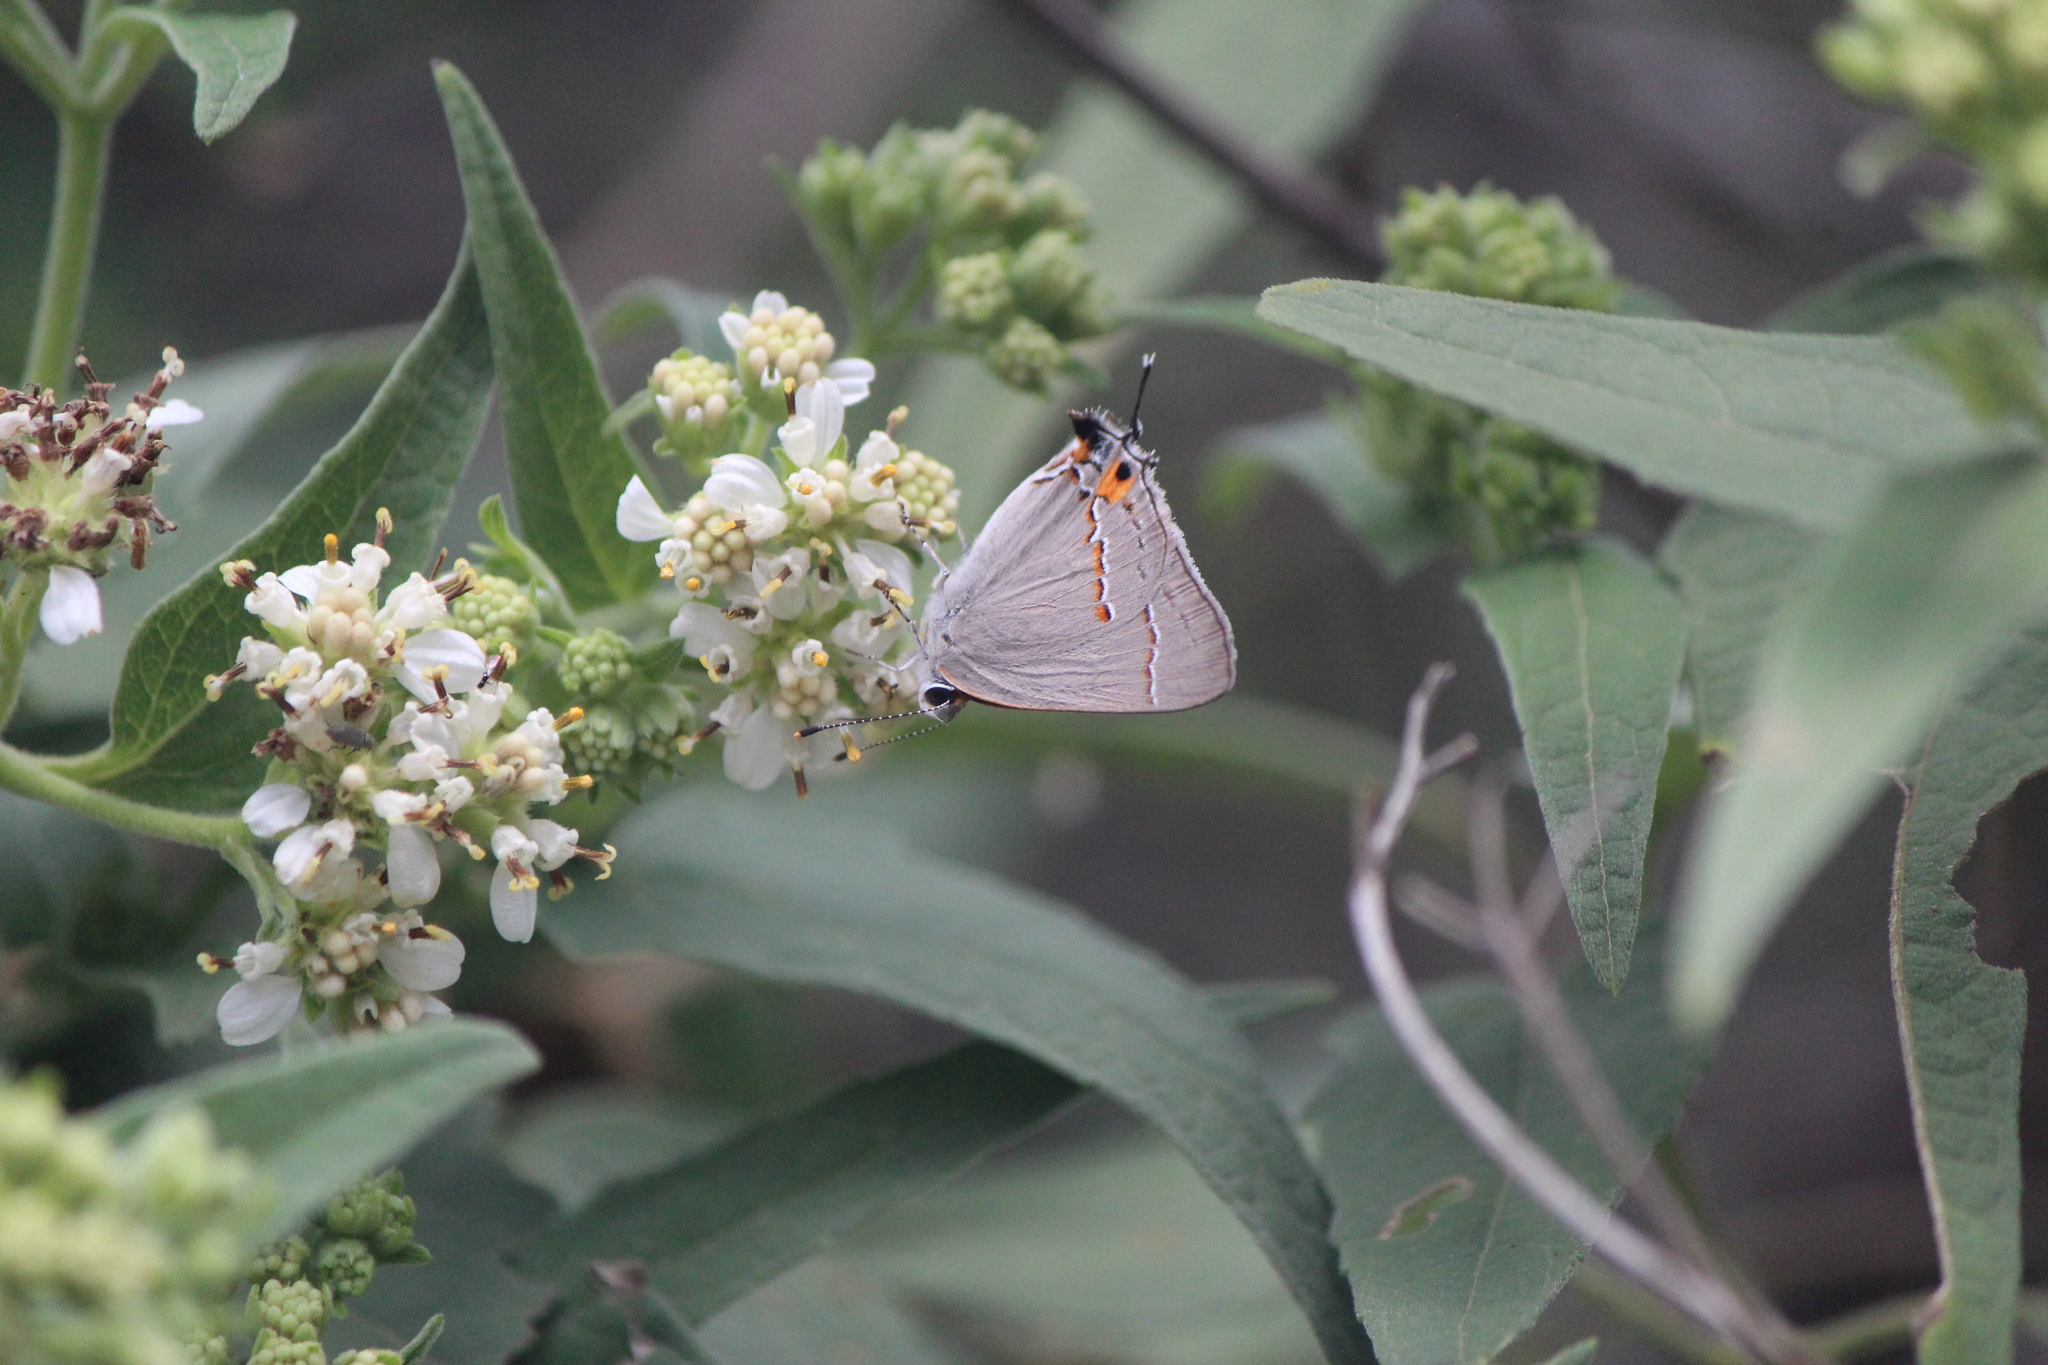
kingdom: Animalia
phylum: Arthropoda
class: Insecta
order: Lepidoptera
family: Lycaenidae
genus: Strymon
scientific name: Strymon melinus
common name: Gray hairstreak
